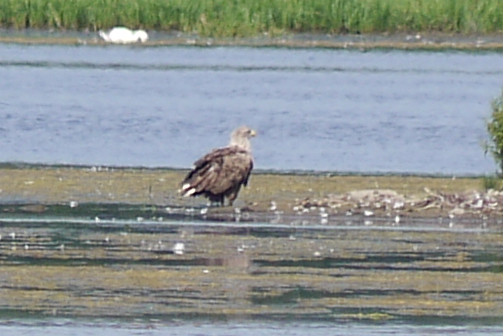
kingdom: Animalia
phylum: Chordata
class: Aves
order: Accipitriformes
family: Accipitridae
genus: Haliaeetus
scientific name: Haliaeetus albicilla
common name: White-tailed eagle
